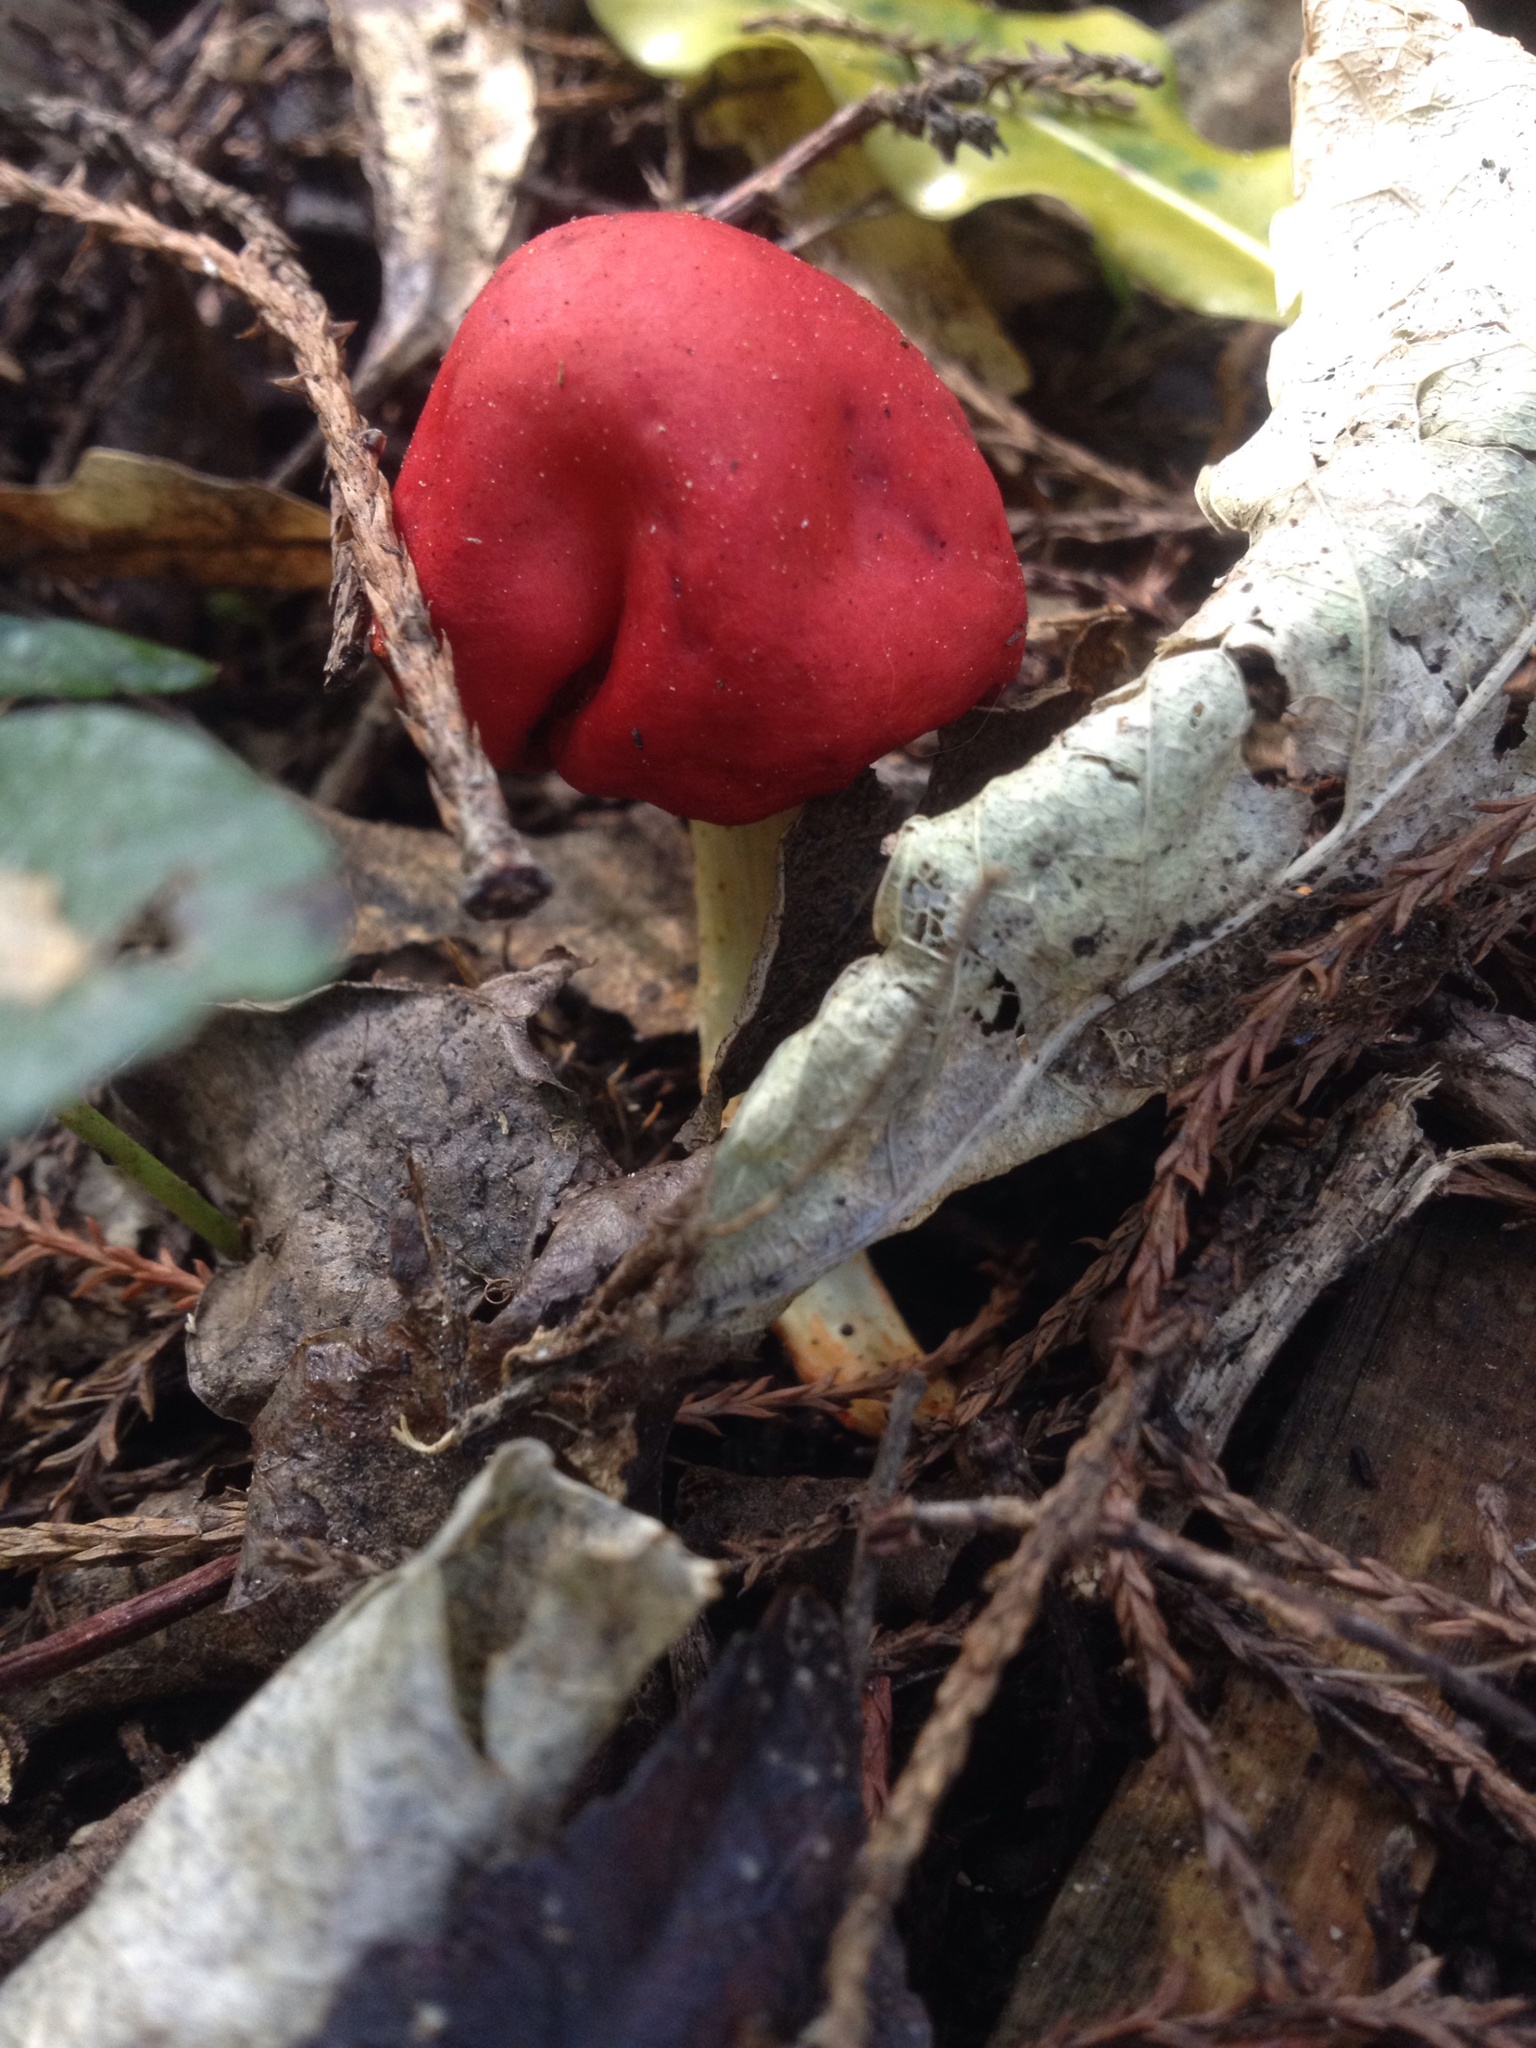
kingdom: Fungi
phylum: Basidiomycota
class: Agaricomycetes
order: Agaricales
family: Strophariaceae
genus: Leratiomyces
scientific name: Leratiomyces erythrocephalus
